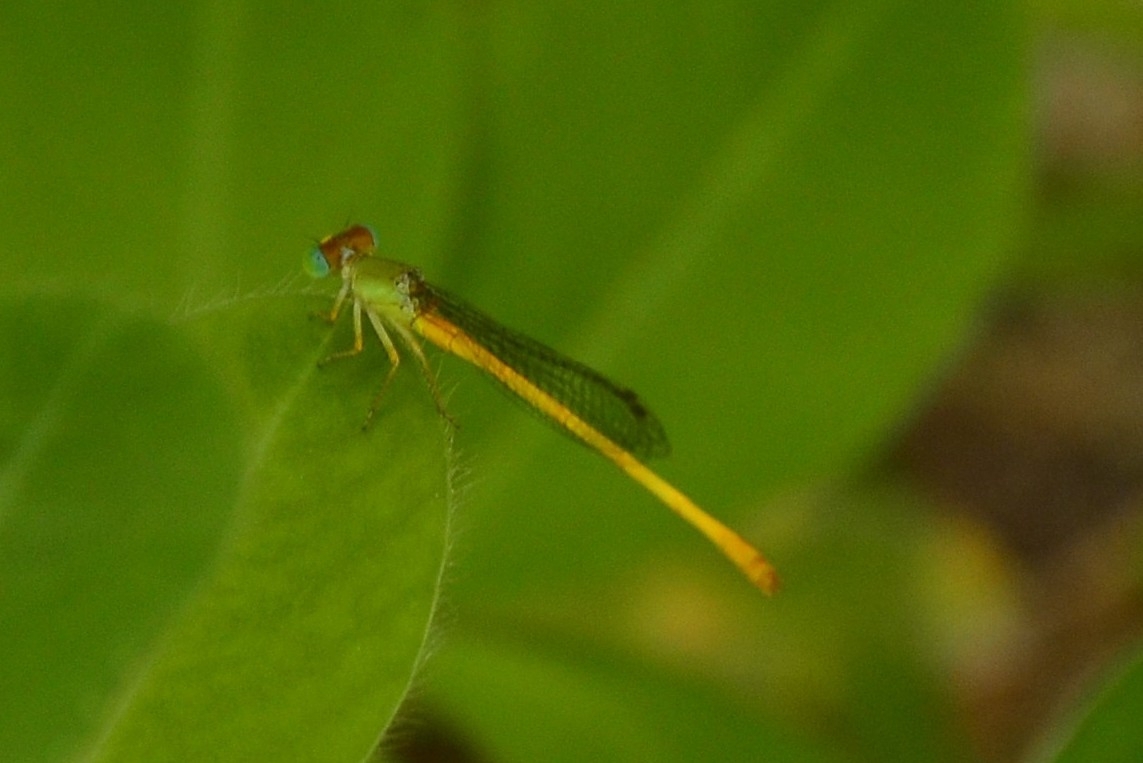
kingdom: Animalia
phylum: Arthropoda
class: Insecta
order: Odonata
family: Coenagrionidae
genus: Ceriagrion
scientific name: Ceriagrion coromandelianum
